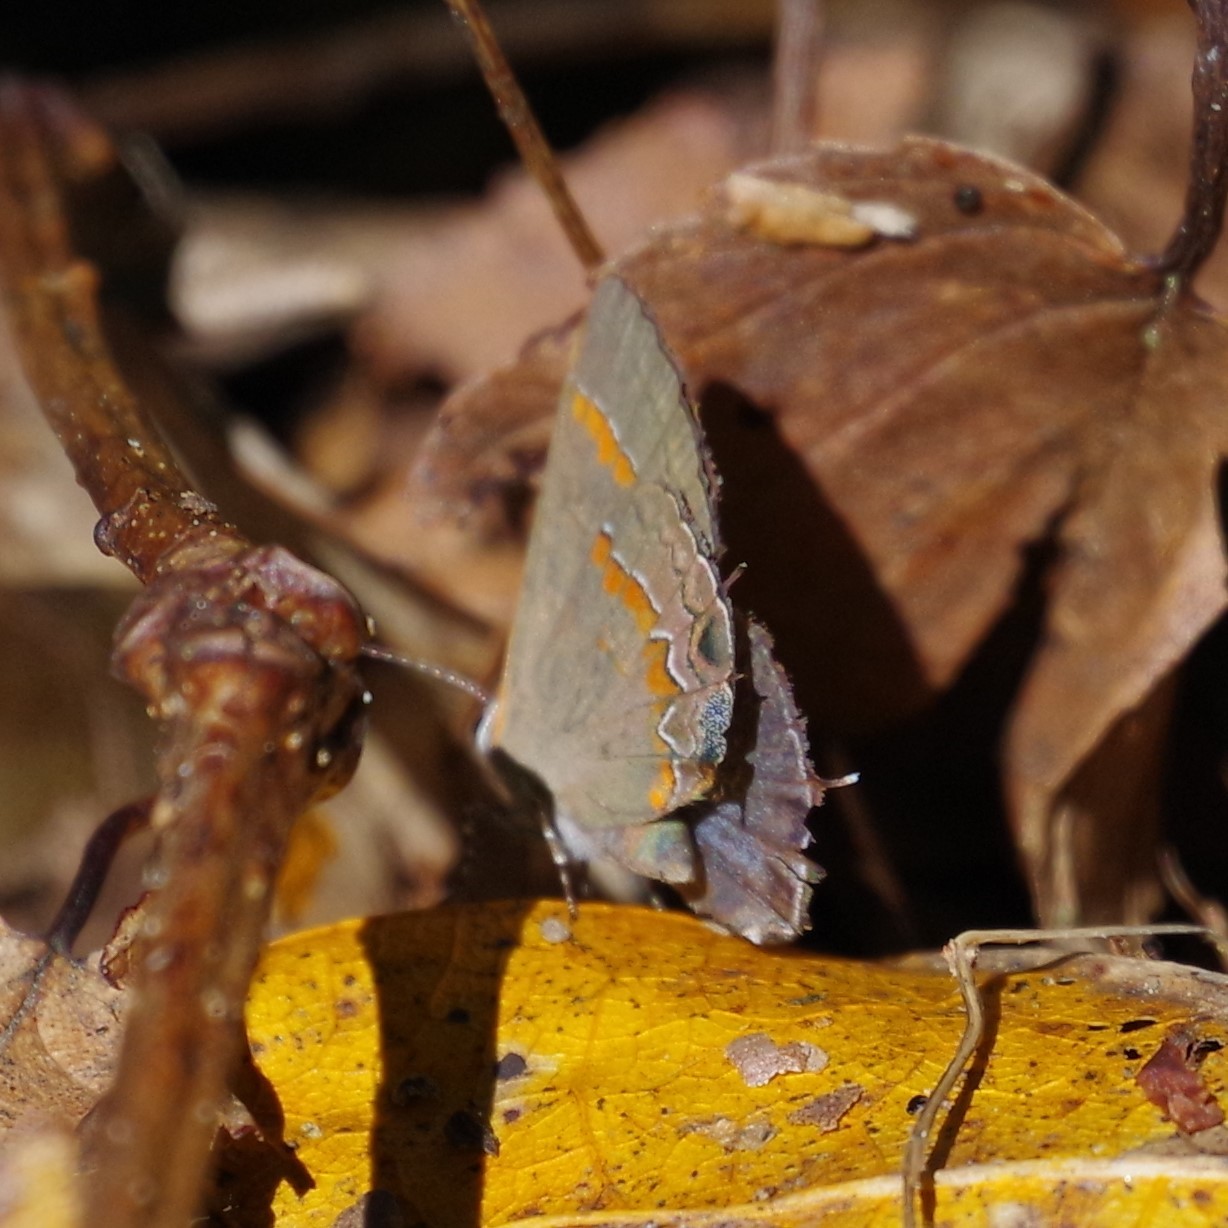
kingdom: Animalia
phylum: Arthropoda
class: Insecta
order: Lepidoptera
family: Lycaenidae
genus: Calycopis
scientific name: Calycopis cecrops
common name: Red-banded hairstreak
